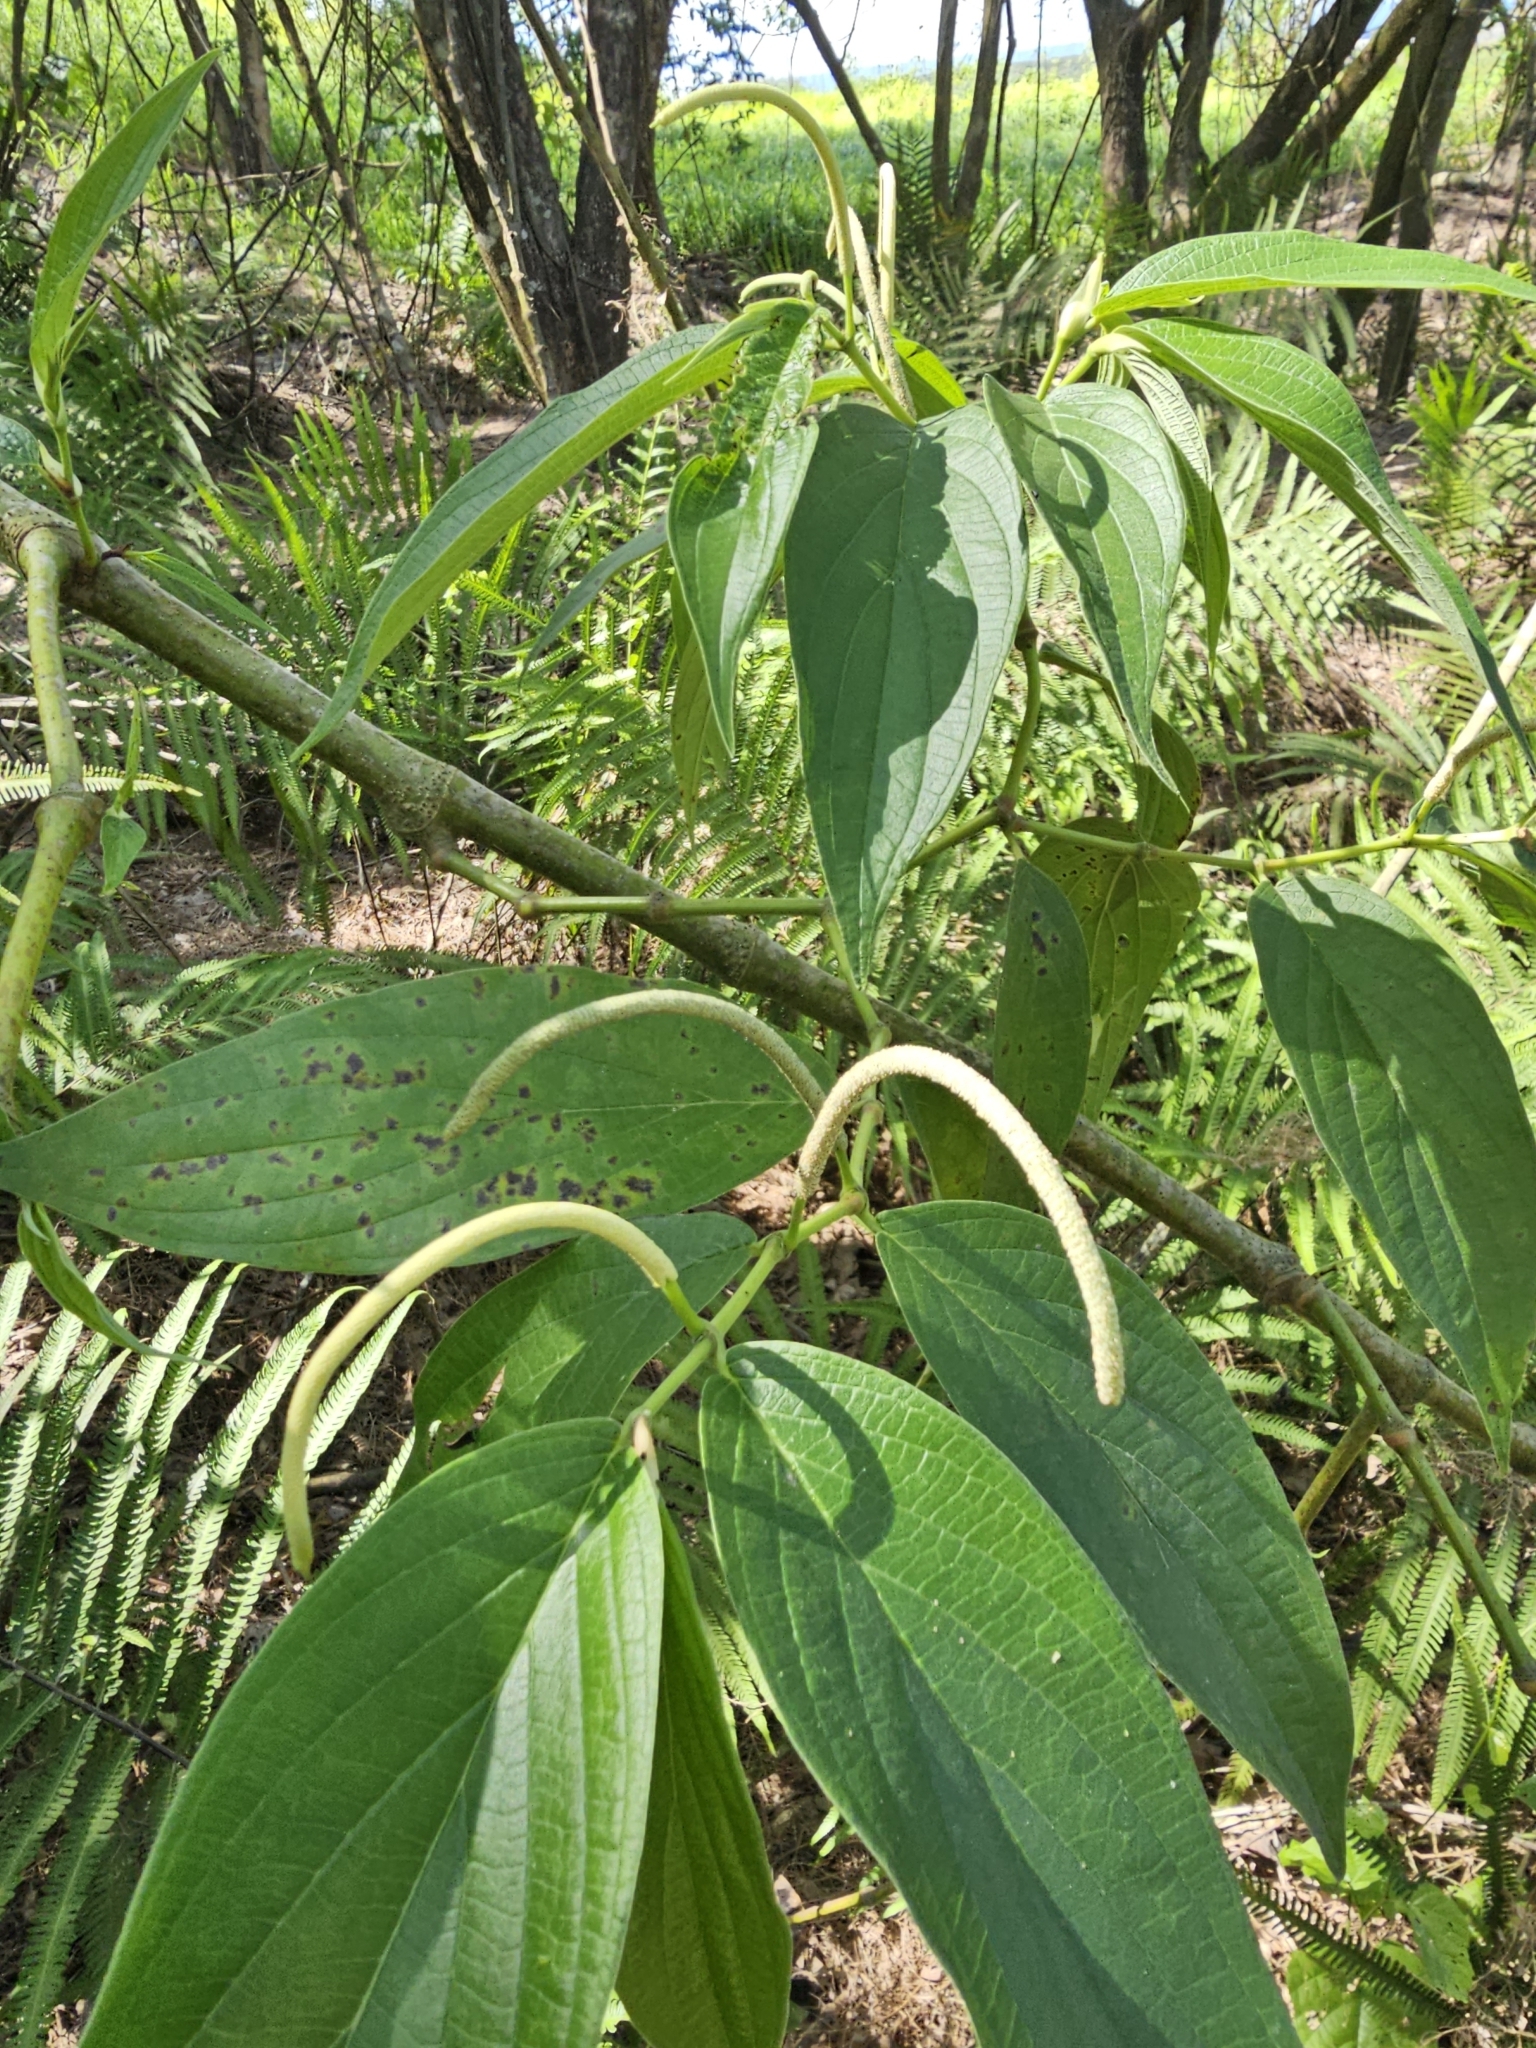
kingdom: Plantae
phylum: Tracheophyta
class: Magnoliopsida
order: Piperales
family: Piperaceae
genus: Piper
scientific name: Piper aduncum
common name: Spiked pepper
